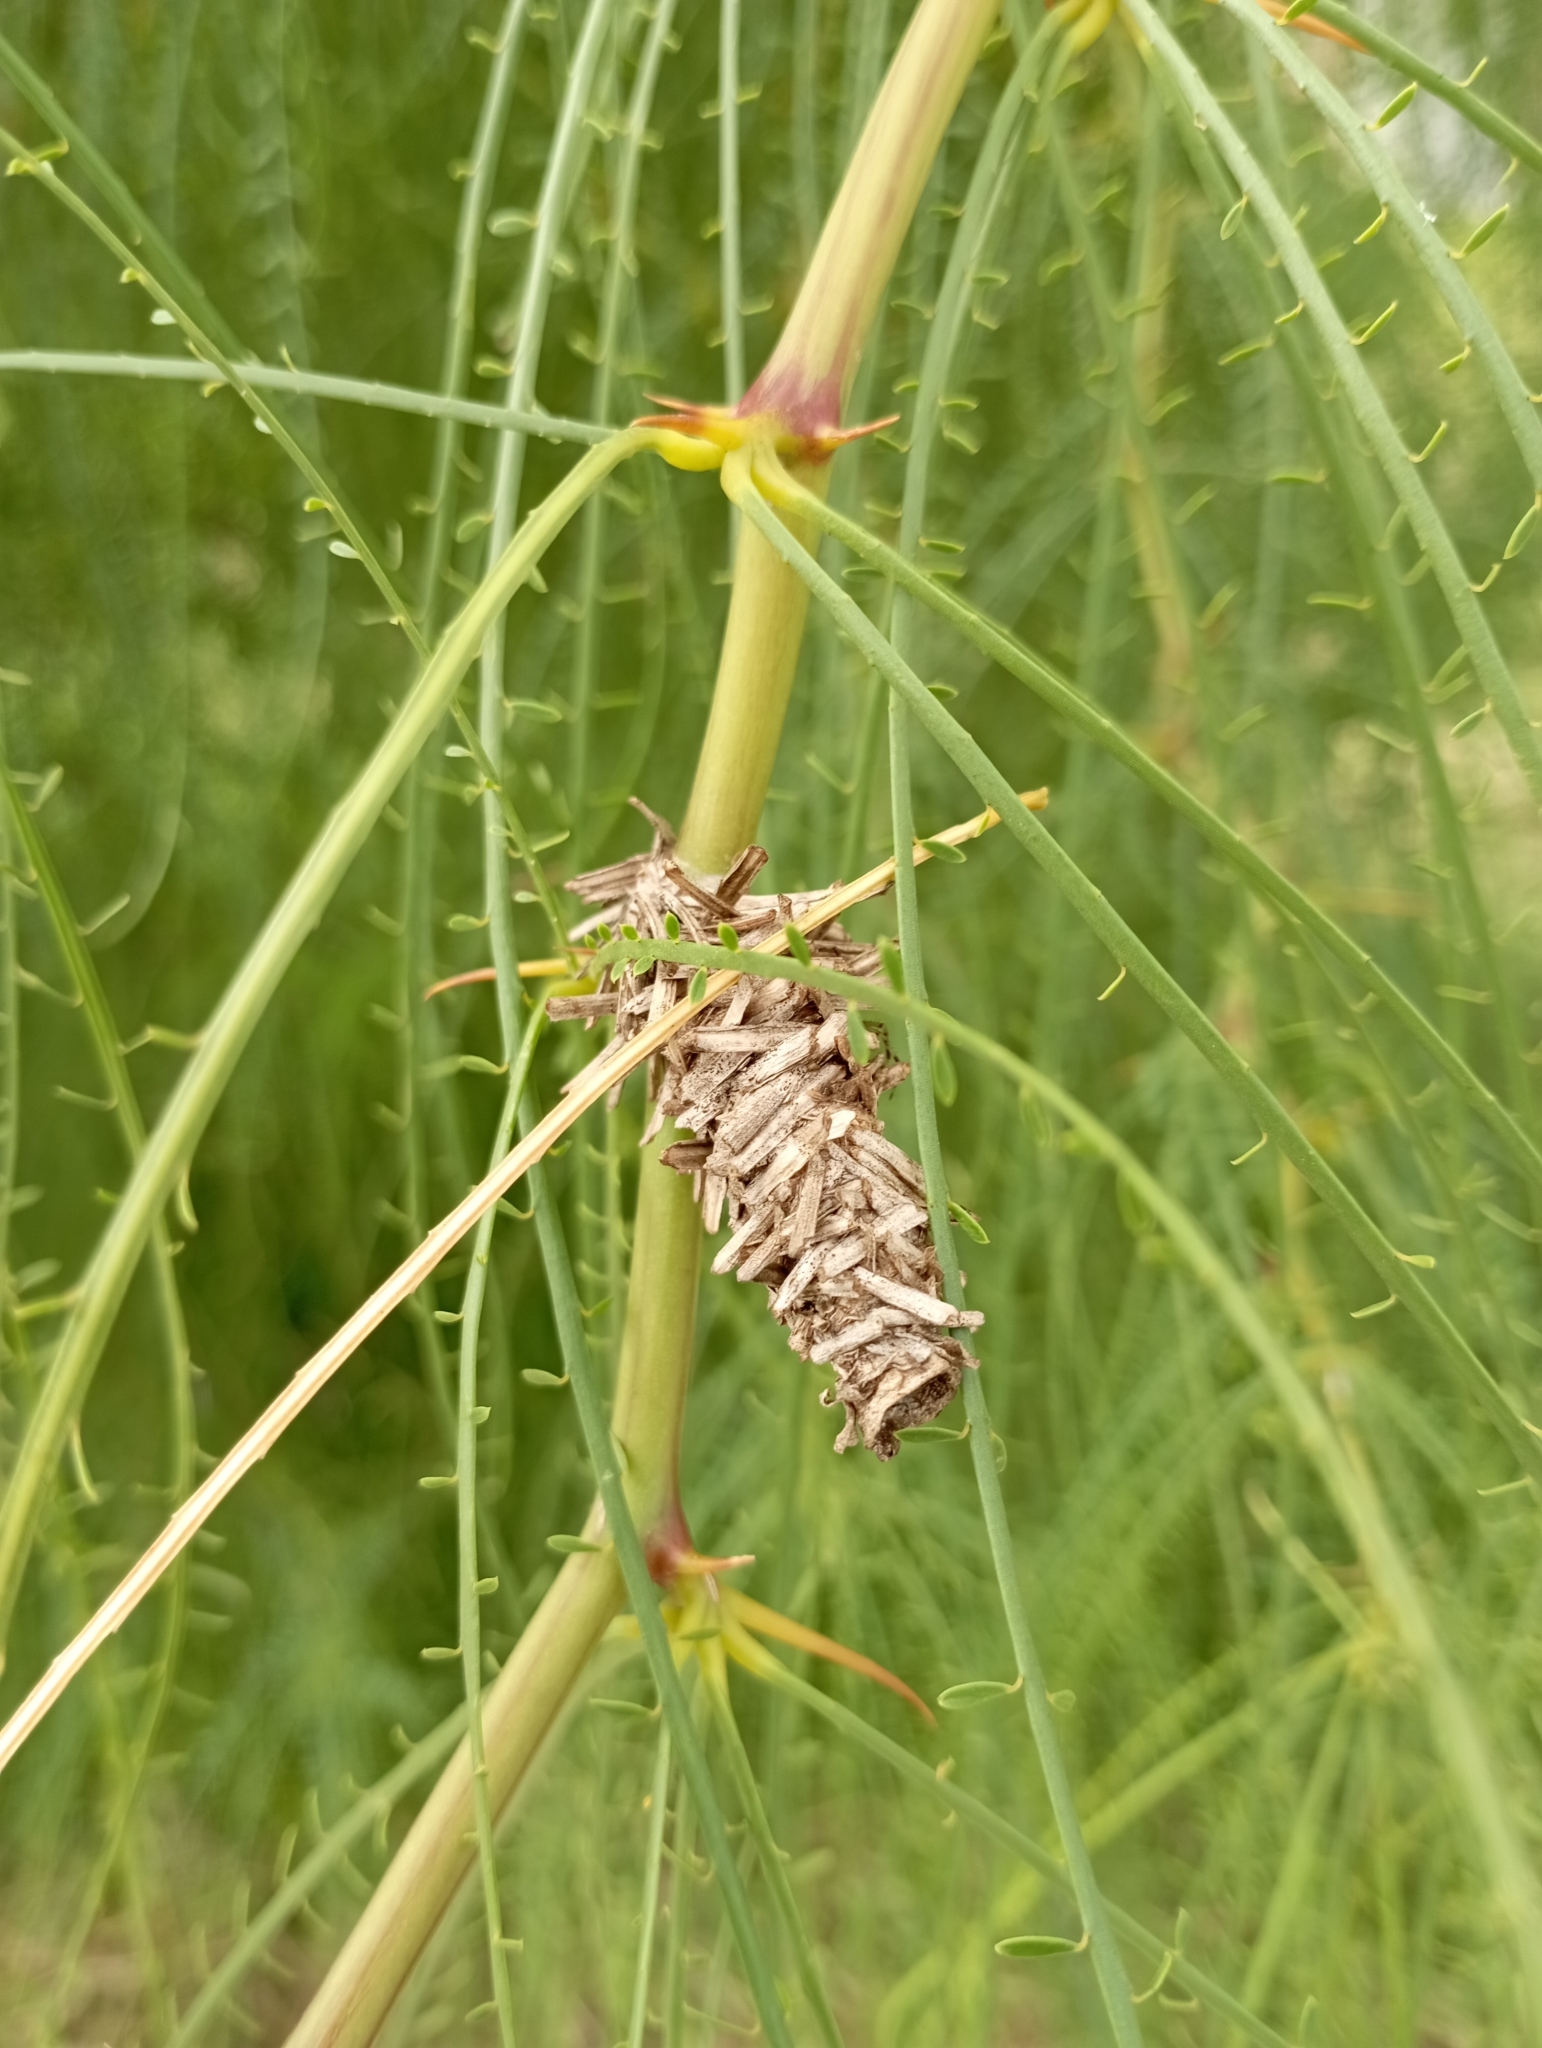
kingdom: Animalia
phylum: Arthropoda
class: Insecta
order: Lepidoptera
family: Psychidae
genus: Oiketicus
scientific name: Oiketicus
